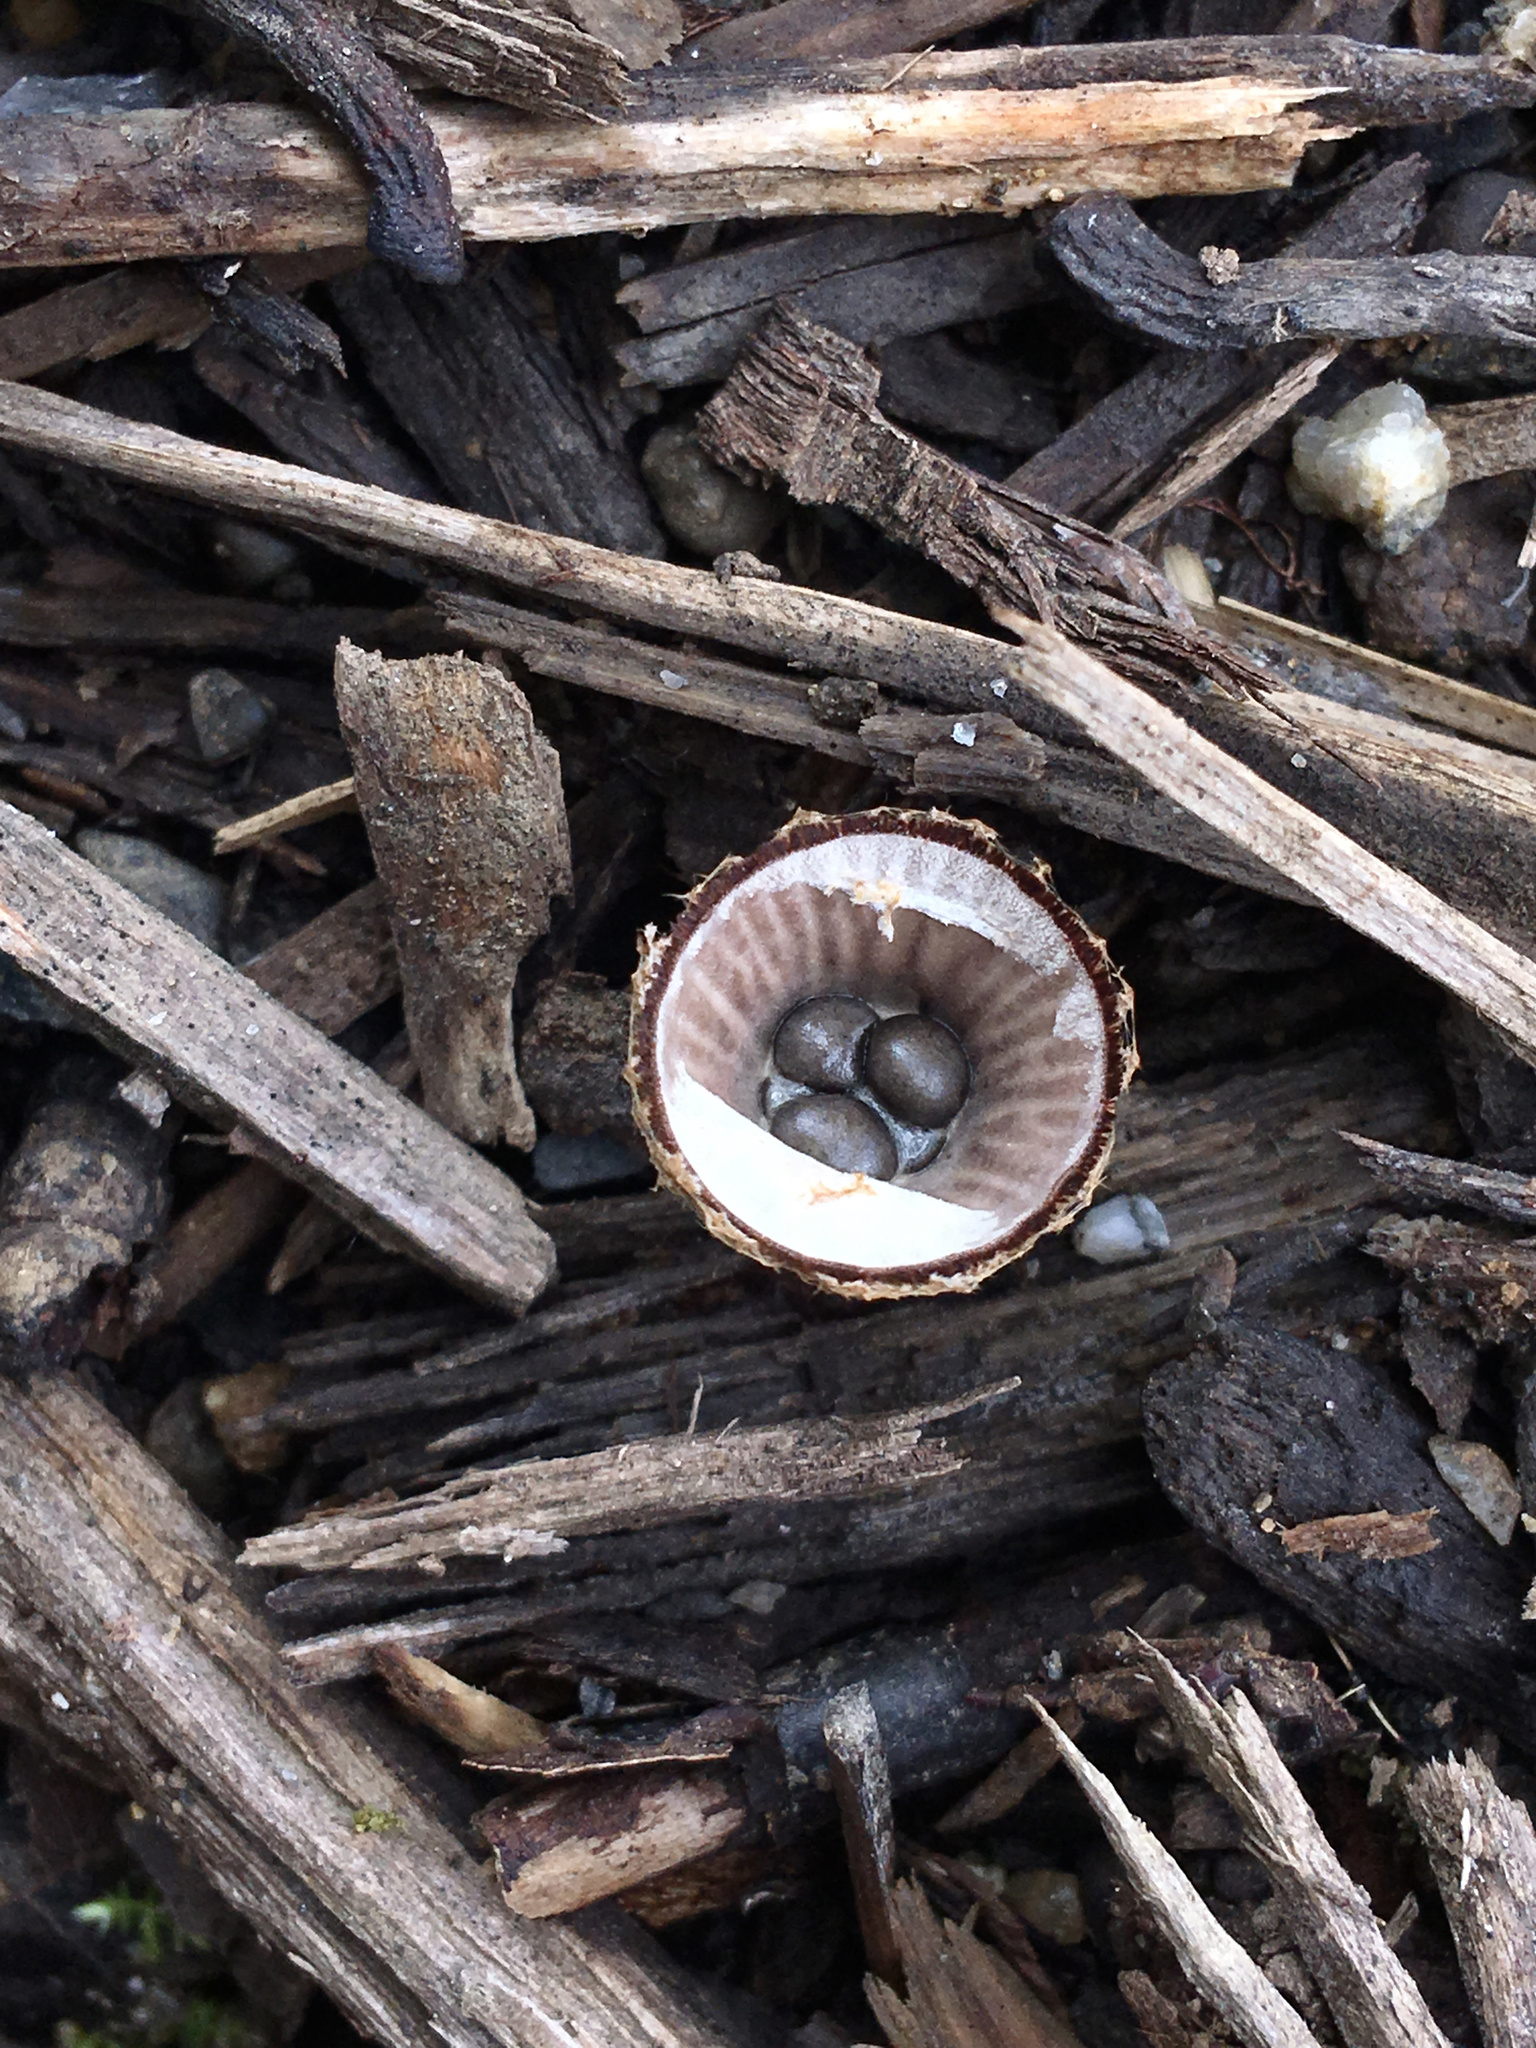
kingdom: Fungi
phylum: Basidiomycota
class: Agaricomycetes
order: Agaricales
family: Agaricaceae
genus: Cyathus
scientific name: Cyathus striatus
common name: Fluted bird's nest
